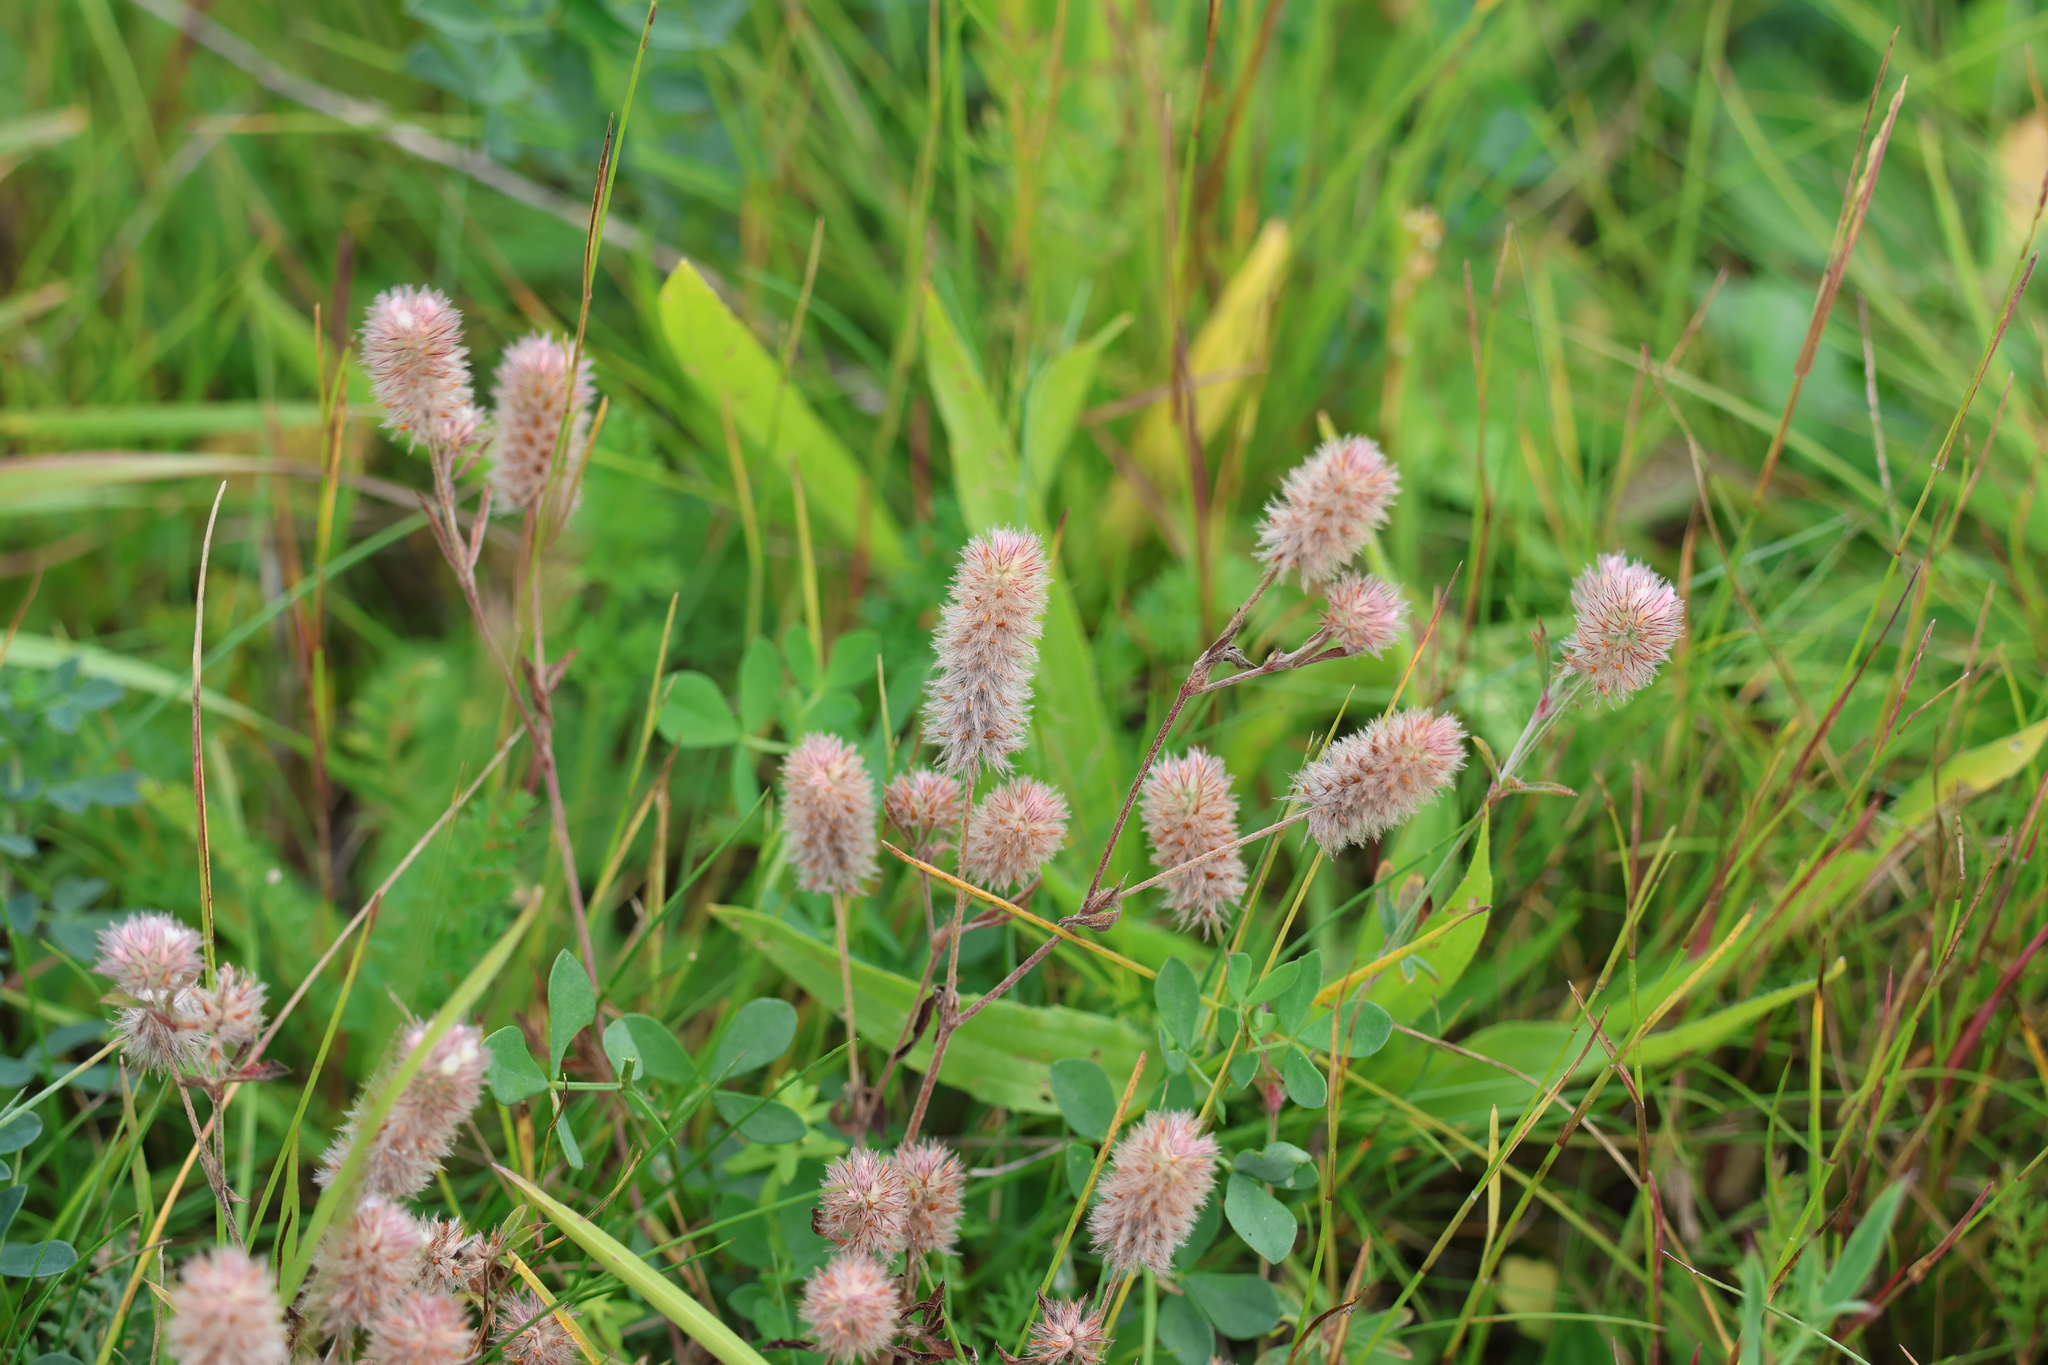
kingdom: Plantae
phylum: Tracheophyta
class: Magnoliopsida
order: Fabales
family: Fabaceae
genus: Trifolium
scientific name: Trifolium arvense
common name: Hare's-foot clover
